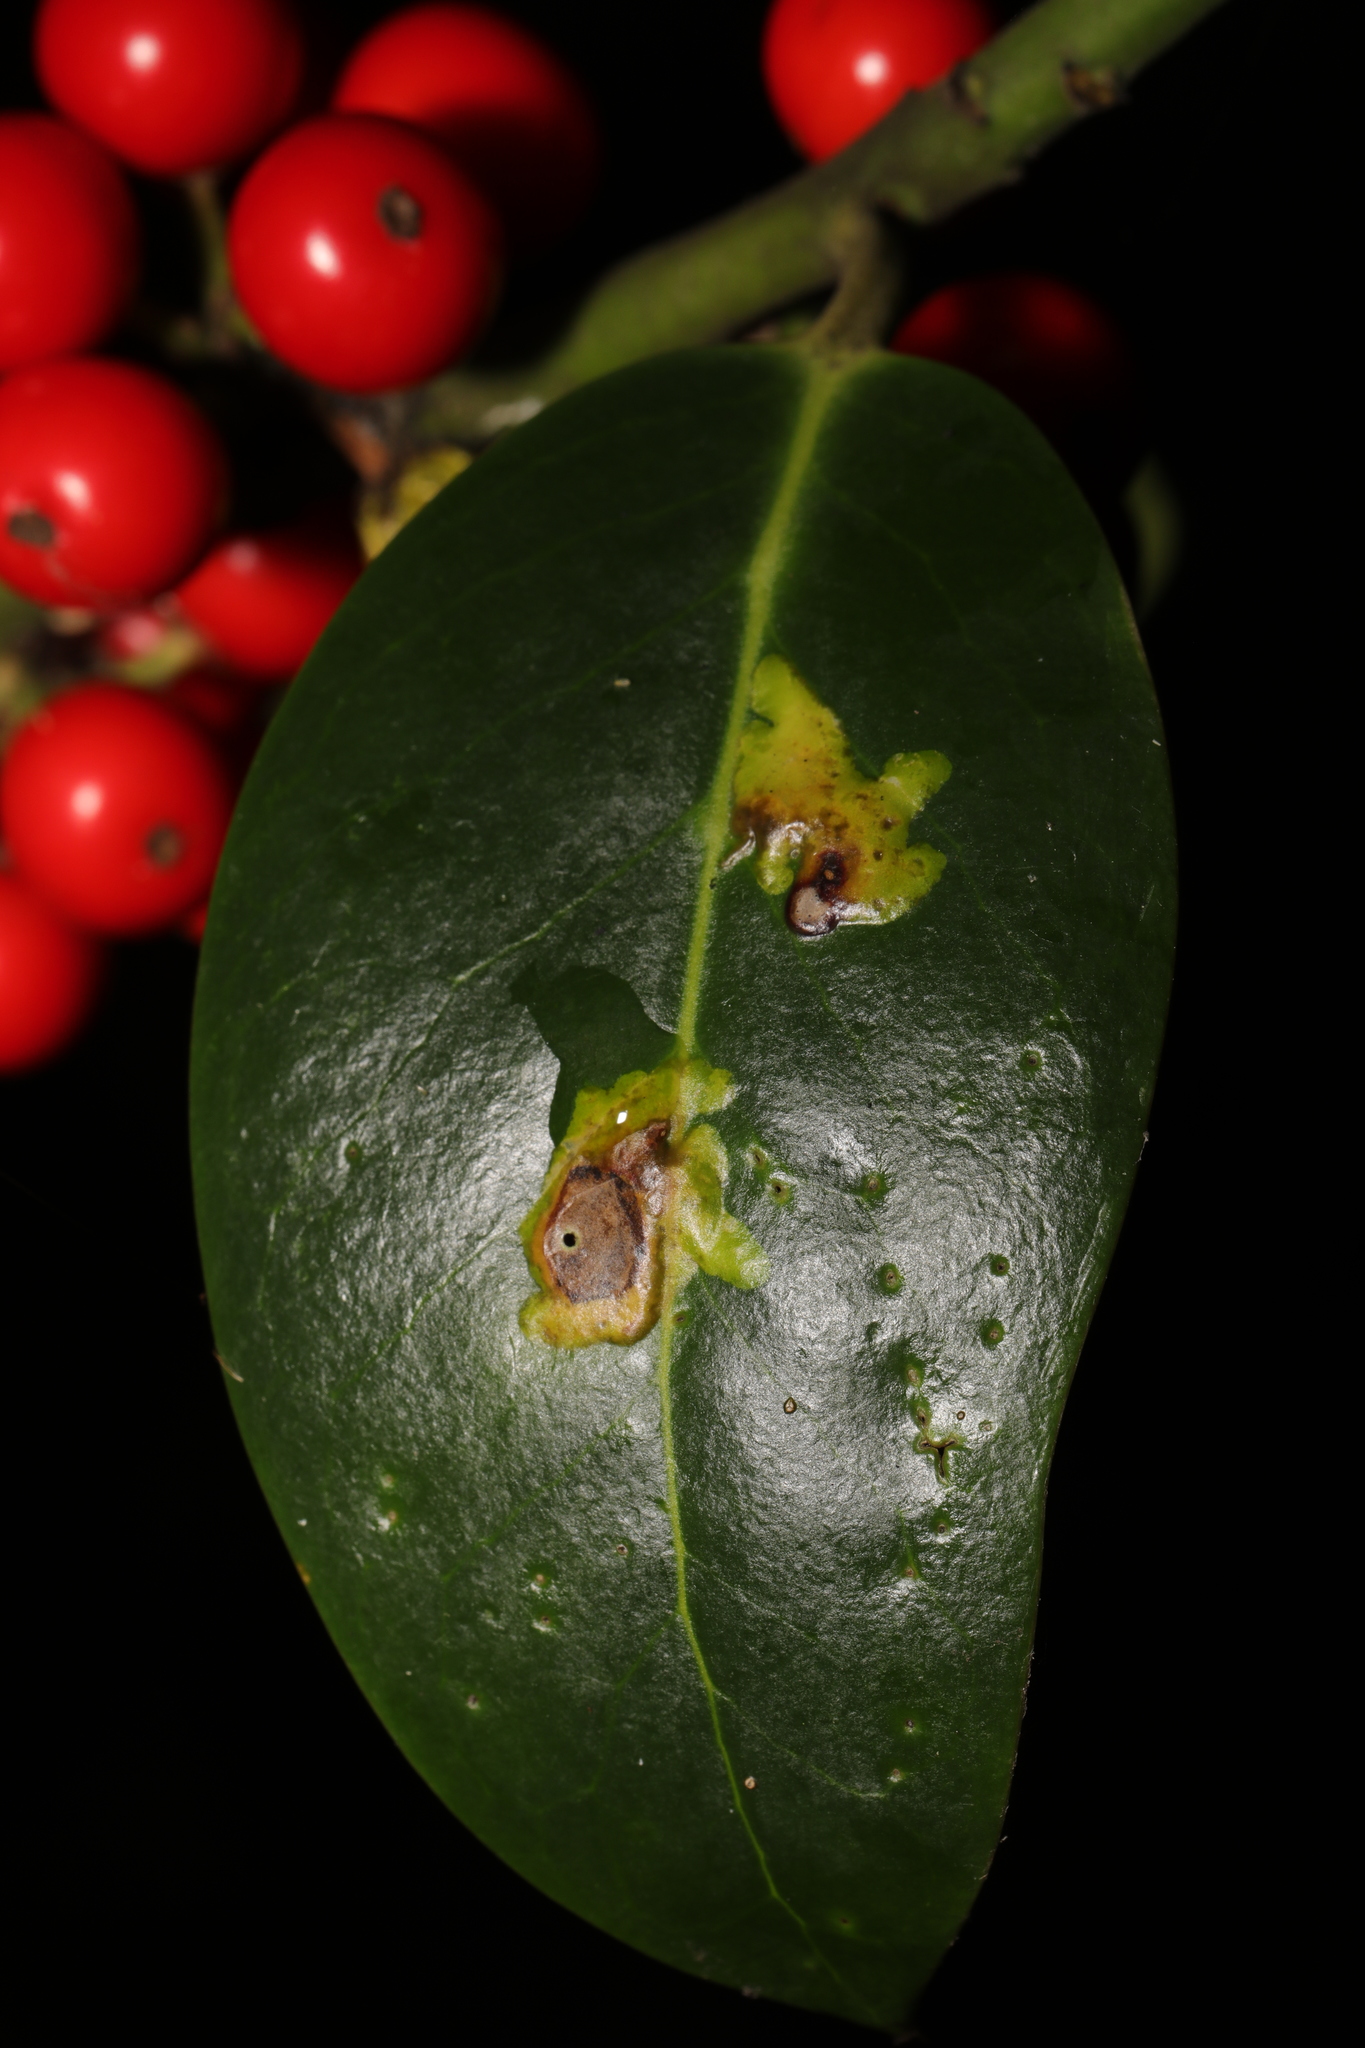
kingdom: Animalia
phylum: Arthropoda
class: Insecta
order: Diptera
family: Agromyzidae
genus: Phytomyza
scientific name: Phytomyza ilicis
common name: Holly leafminer
